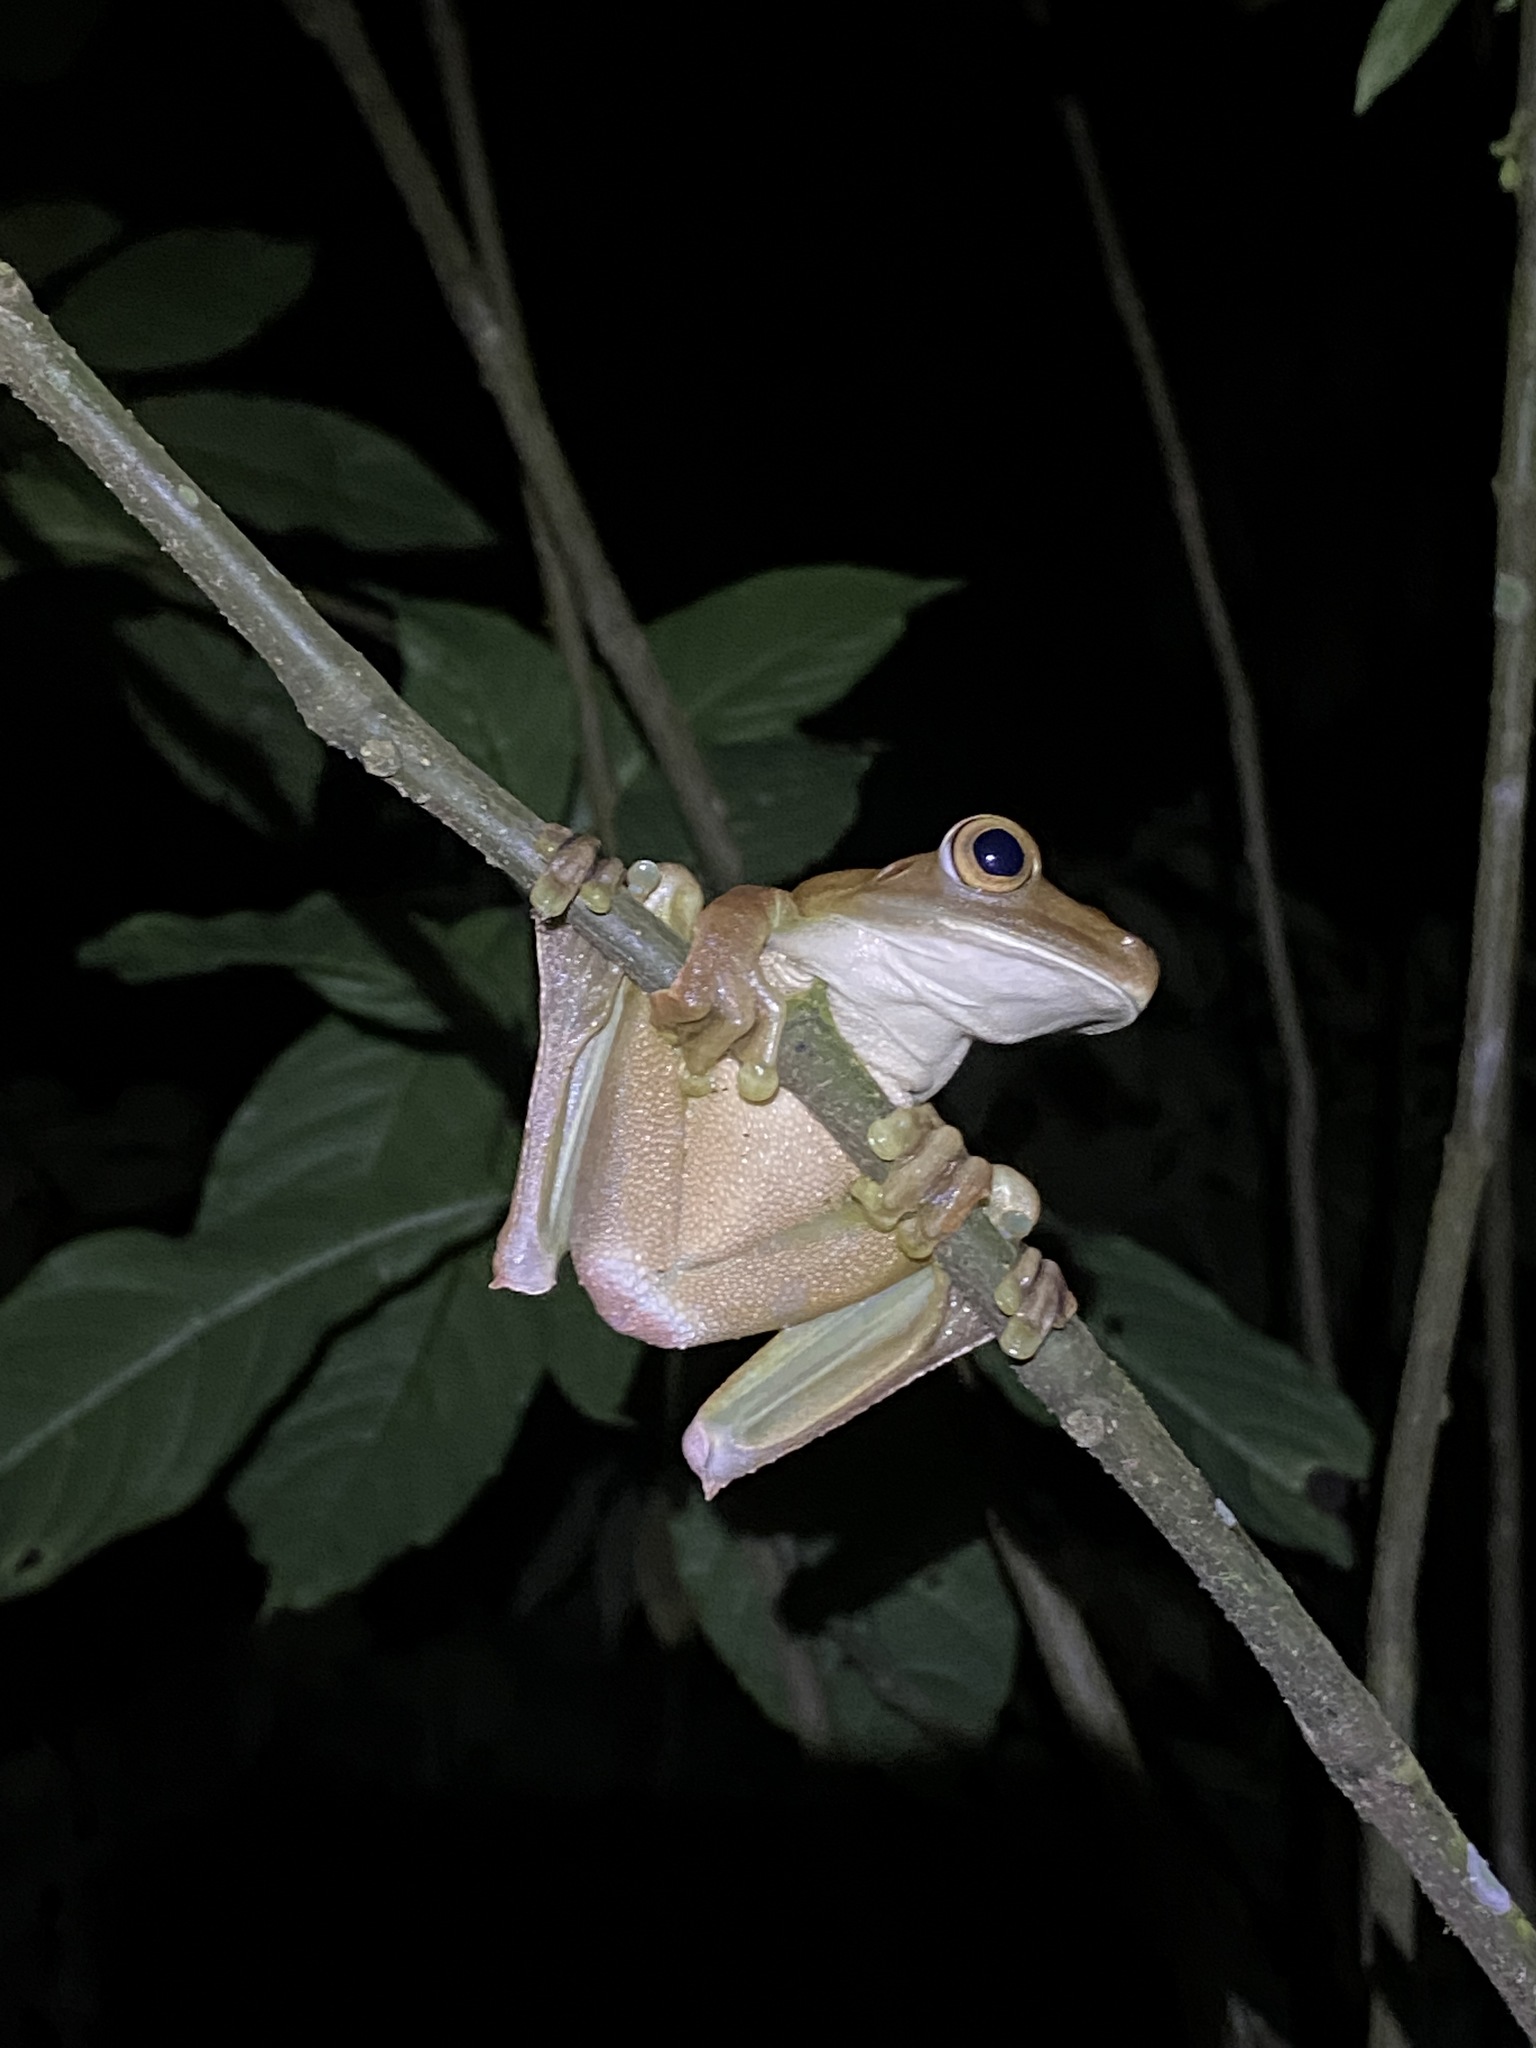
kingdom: Animalia
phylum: Chordata
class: Amphibia
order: Anura
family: Hylidae
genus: Boana
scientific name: Boana boans
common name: Giant gladiator treefrog
